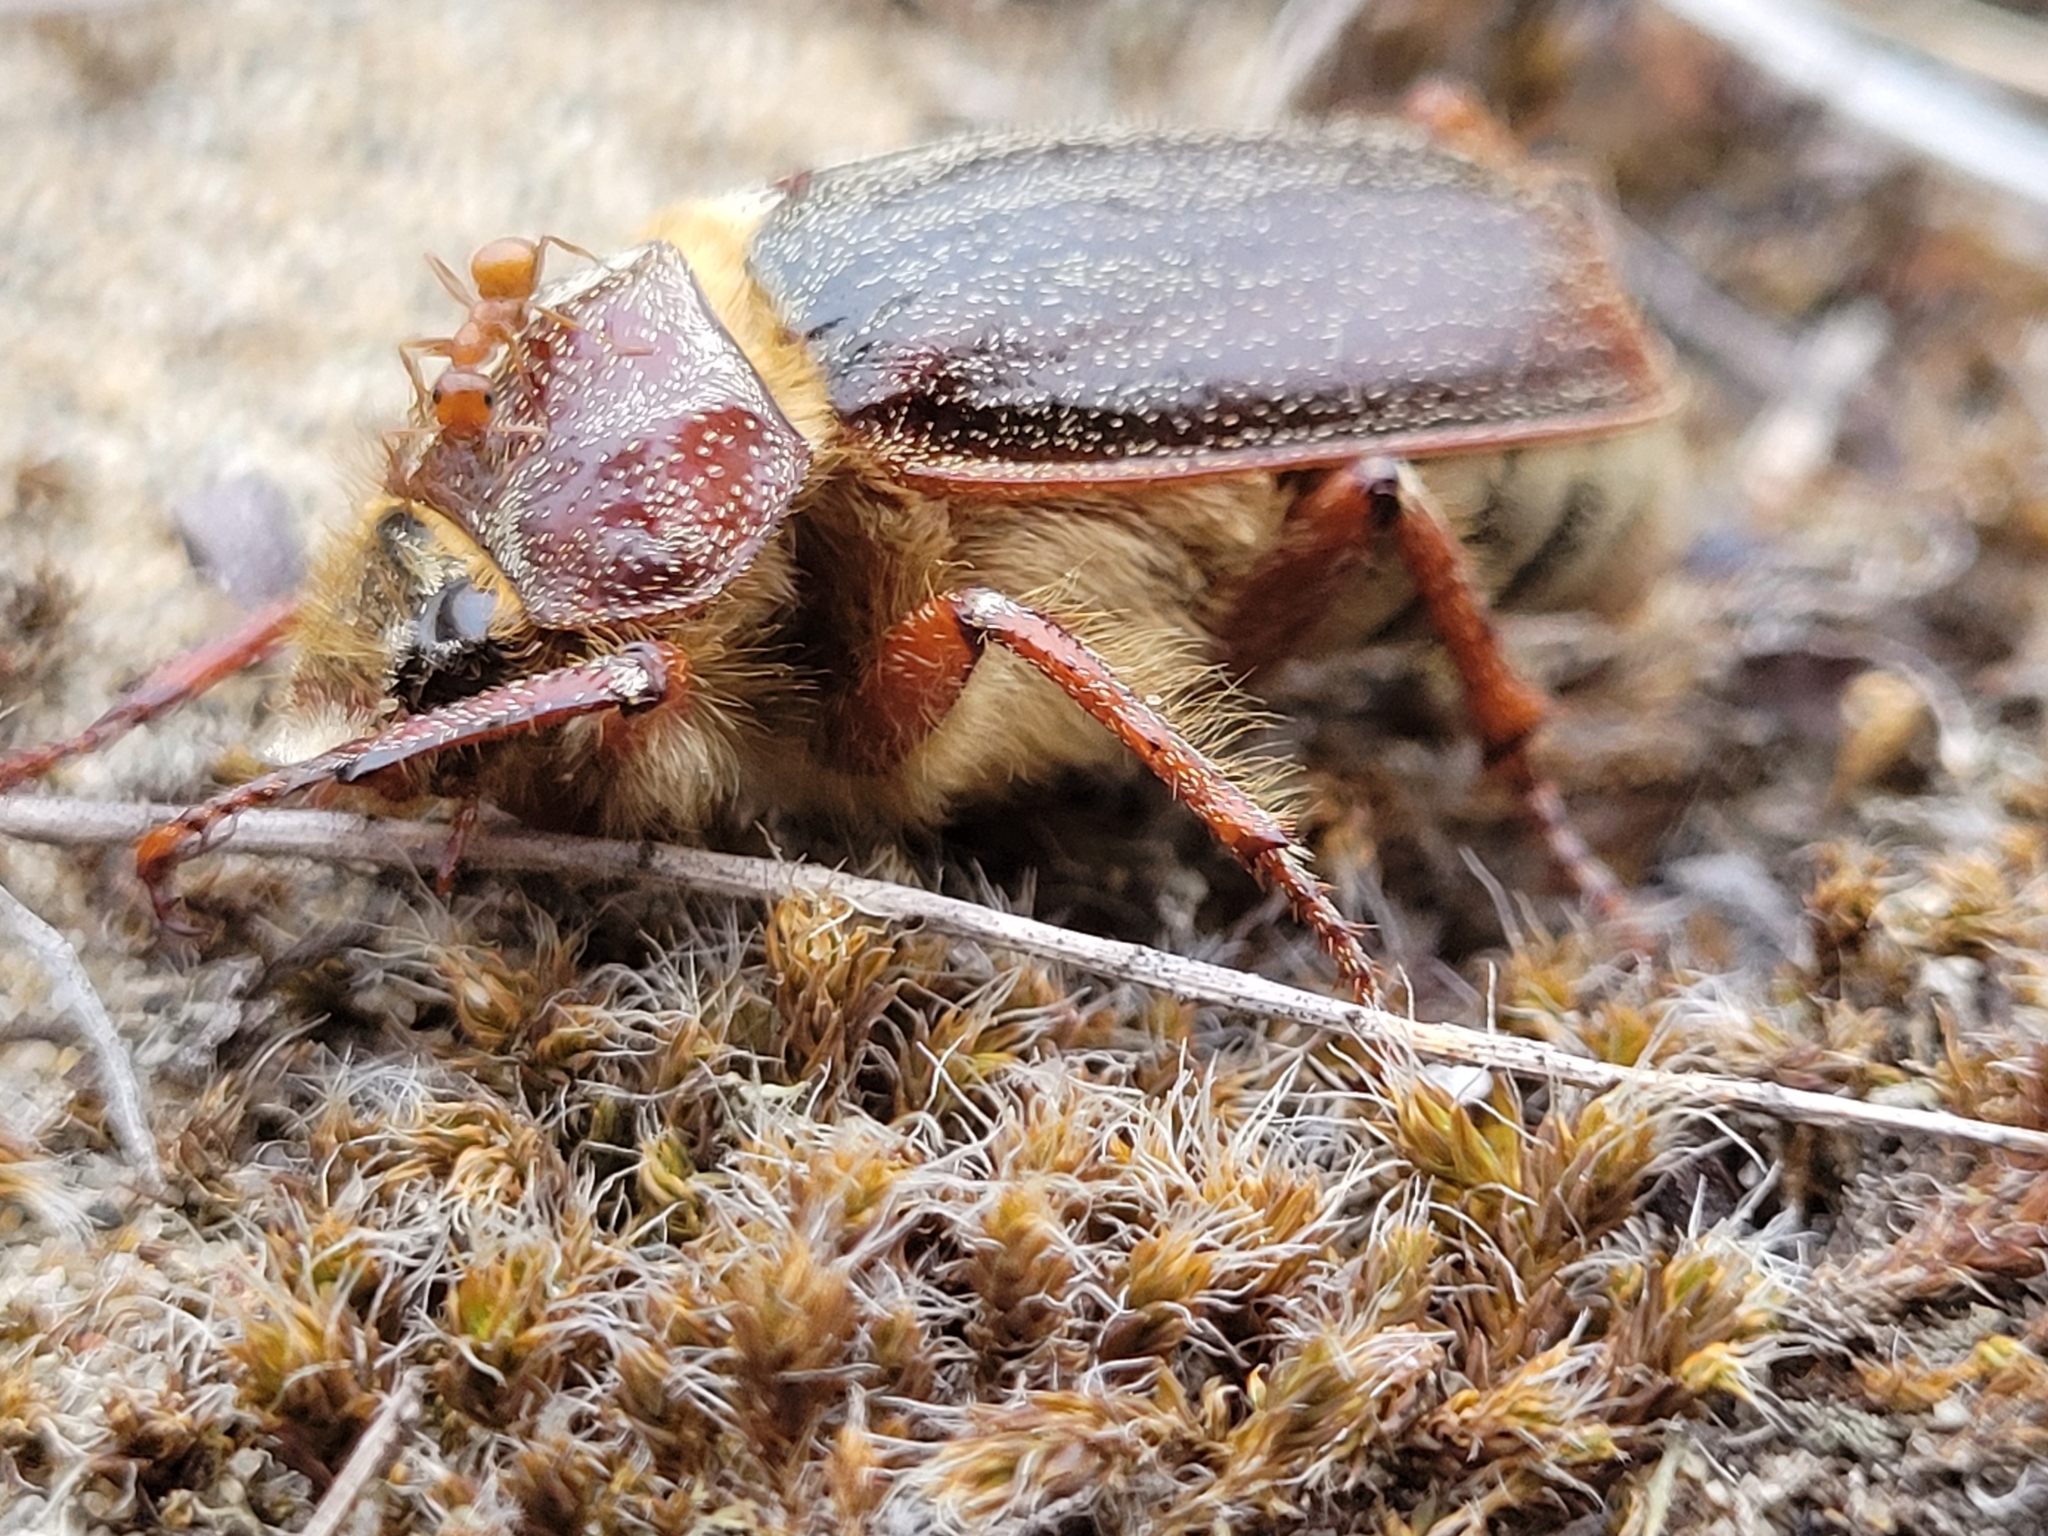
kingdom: Animalia
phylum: Arthropoda
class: Insecta
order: Coleoptera
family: Scarabaeidae
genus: Polyphylla
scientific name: Polyphylla hammondi
